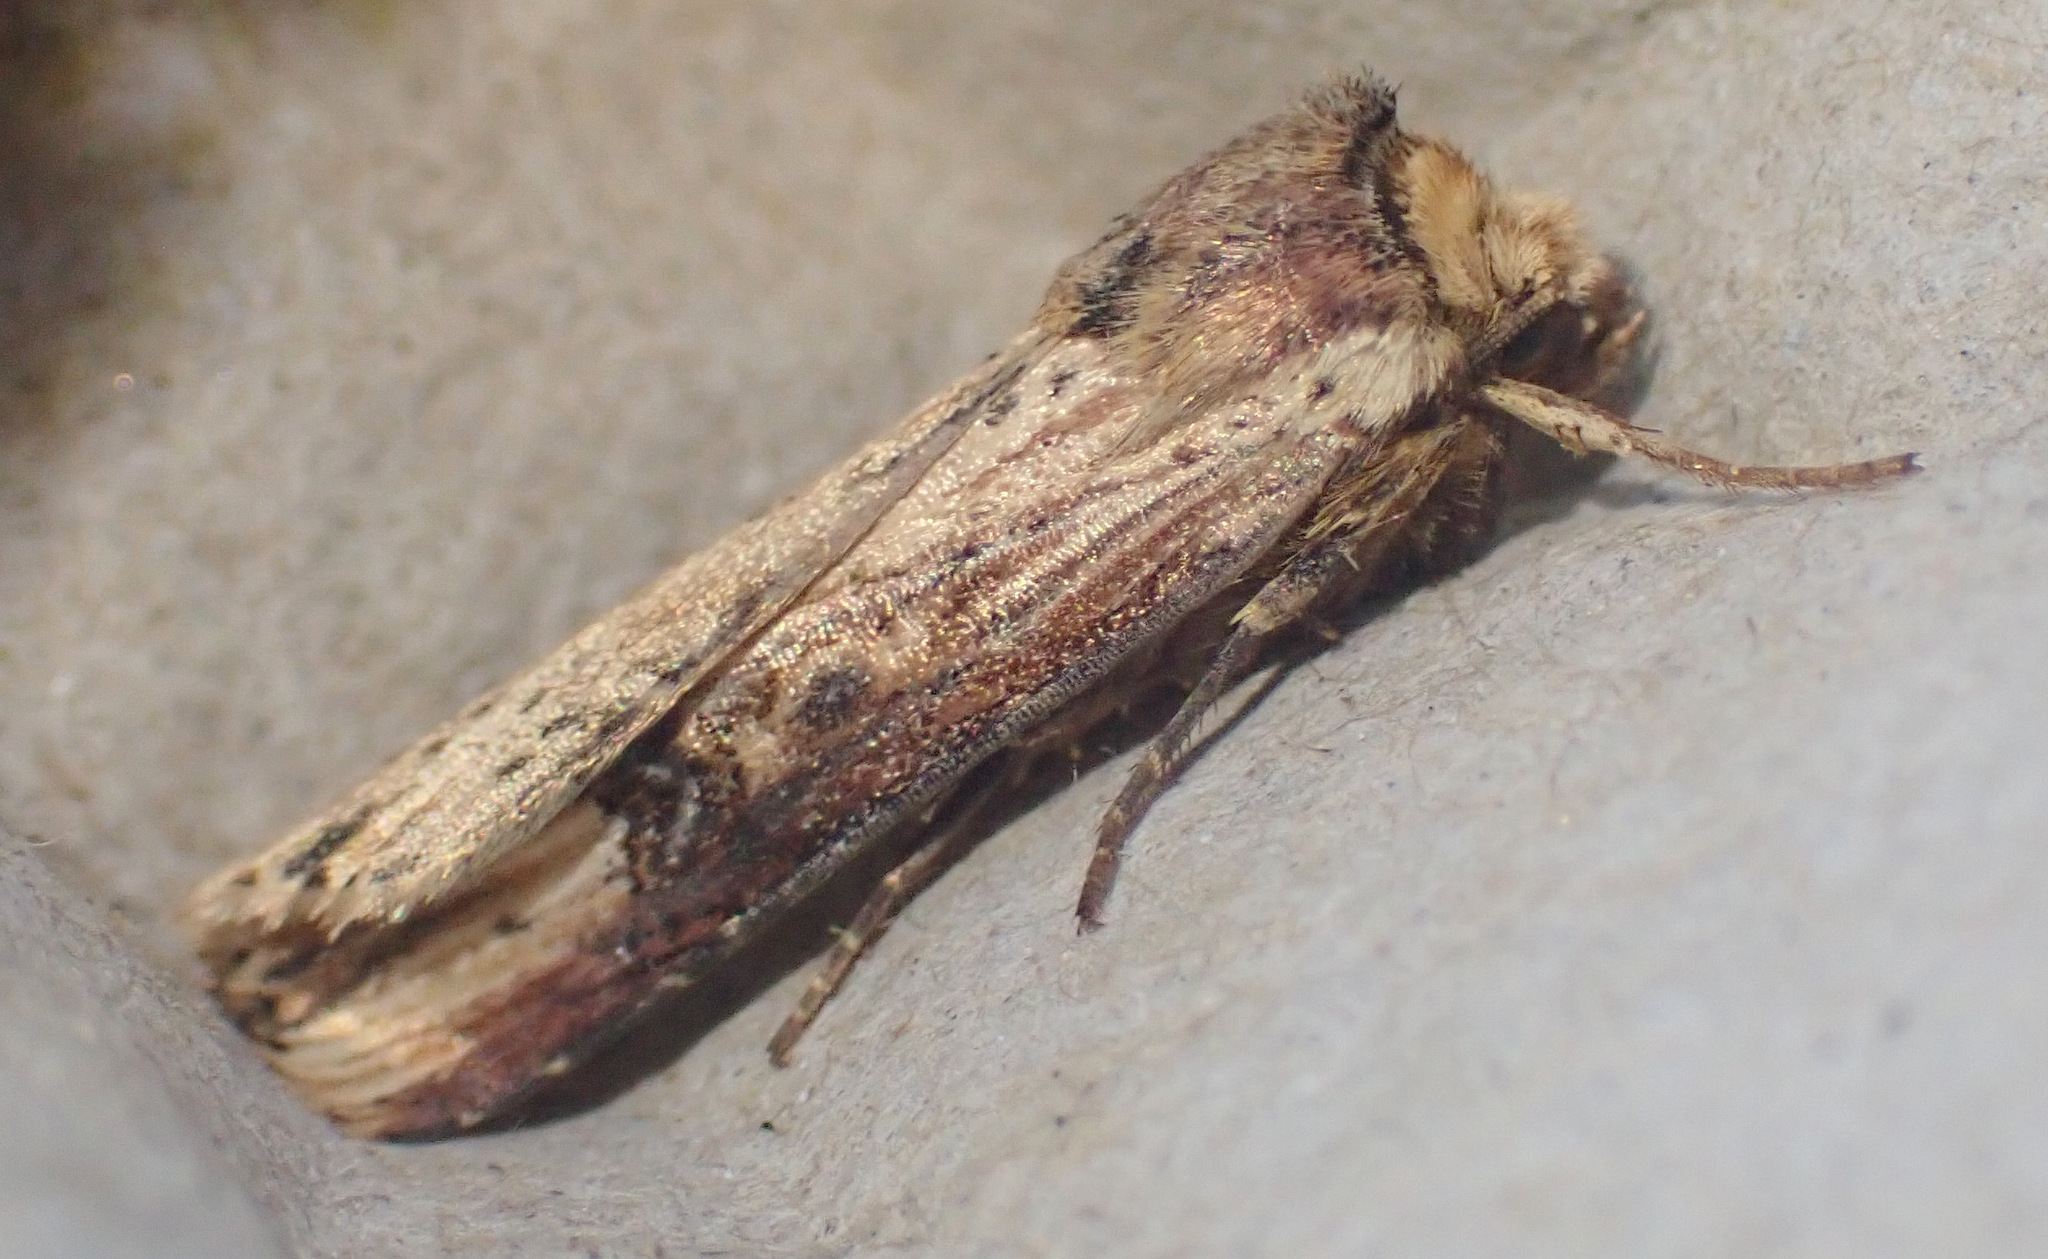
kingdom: Animalia
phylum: Arthropoda
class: Insecta
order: Lepidoptera
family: Noctuidae
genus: Axylia
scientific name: Axylia putris
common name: Flame
